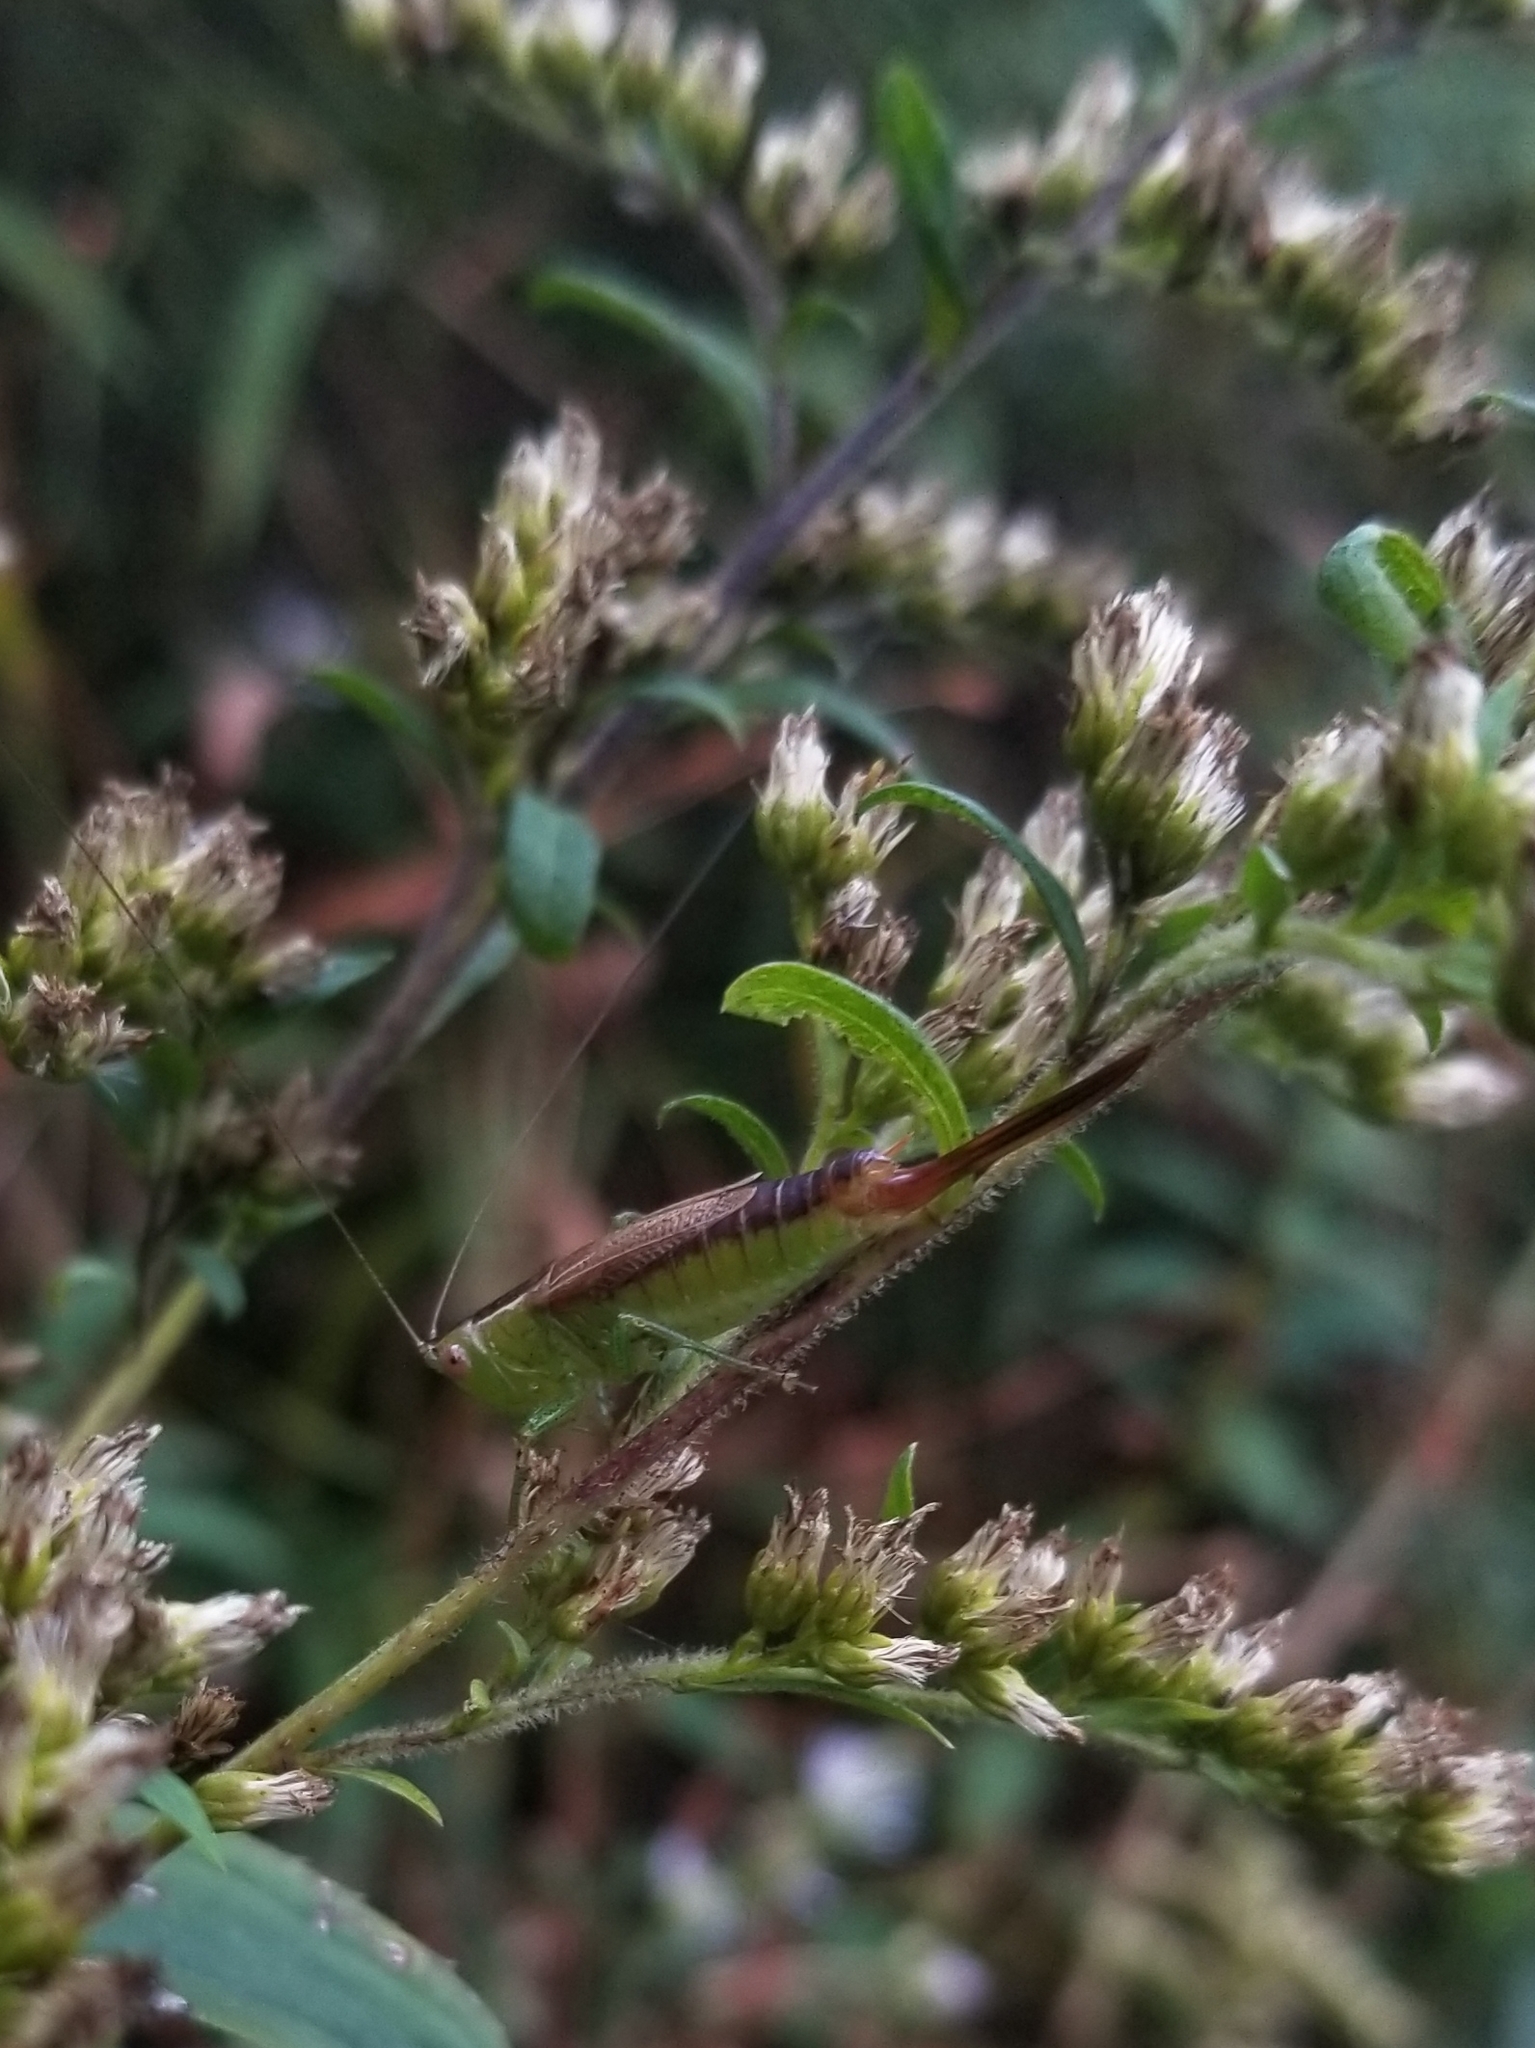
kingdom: Animalia
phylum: Arthropoda
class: Insecta
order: Orthoptera
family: Tettigoniidae
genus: Conocephalus
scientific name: Conocephalus brevipennis
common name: Short-winged meadow katydid
